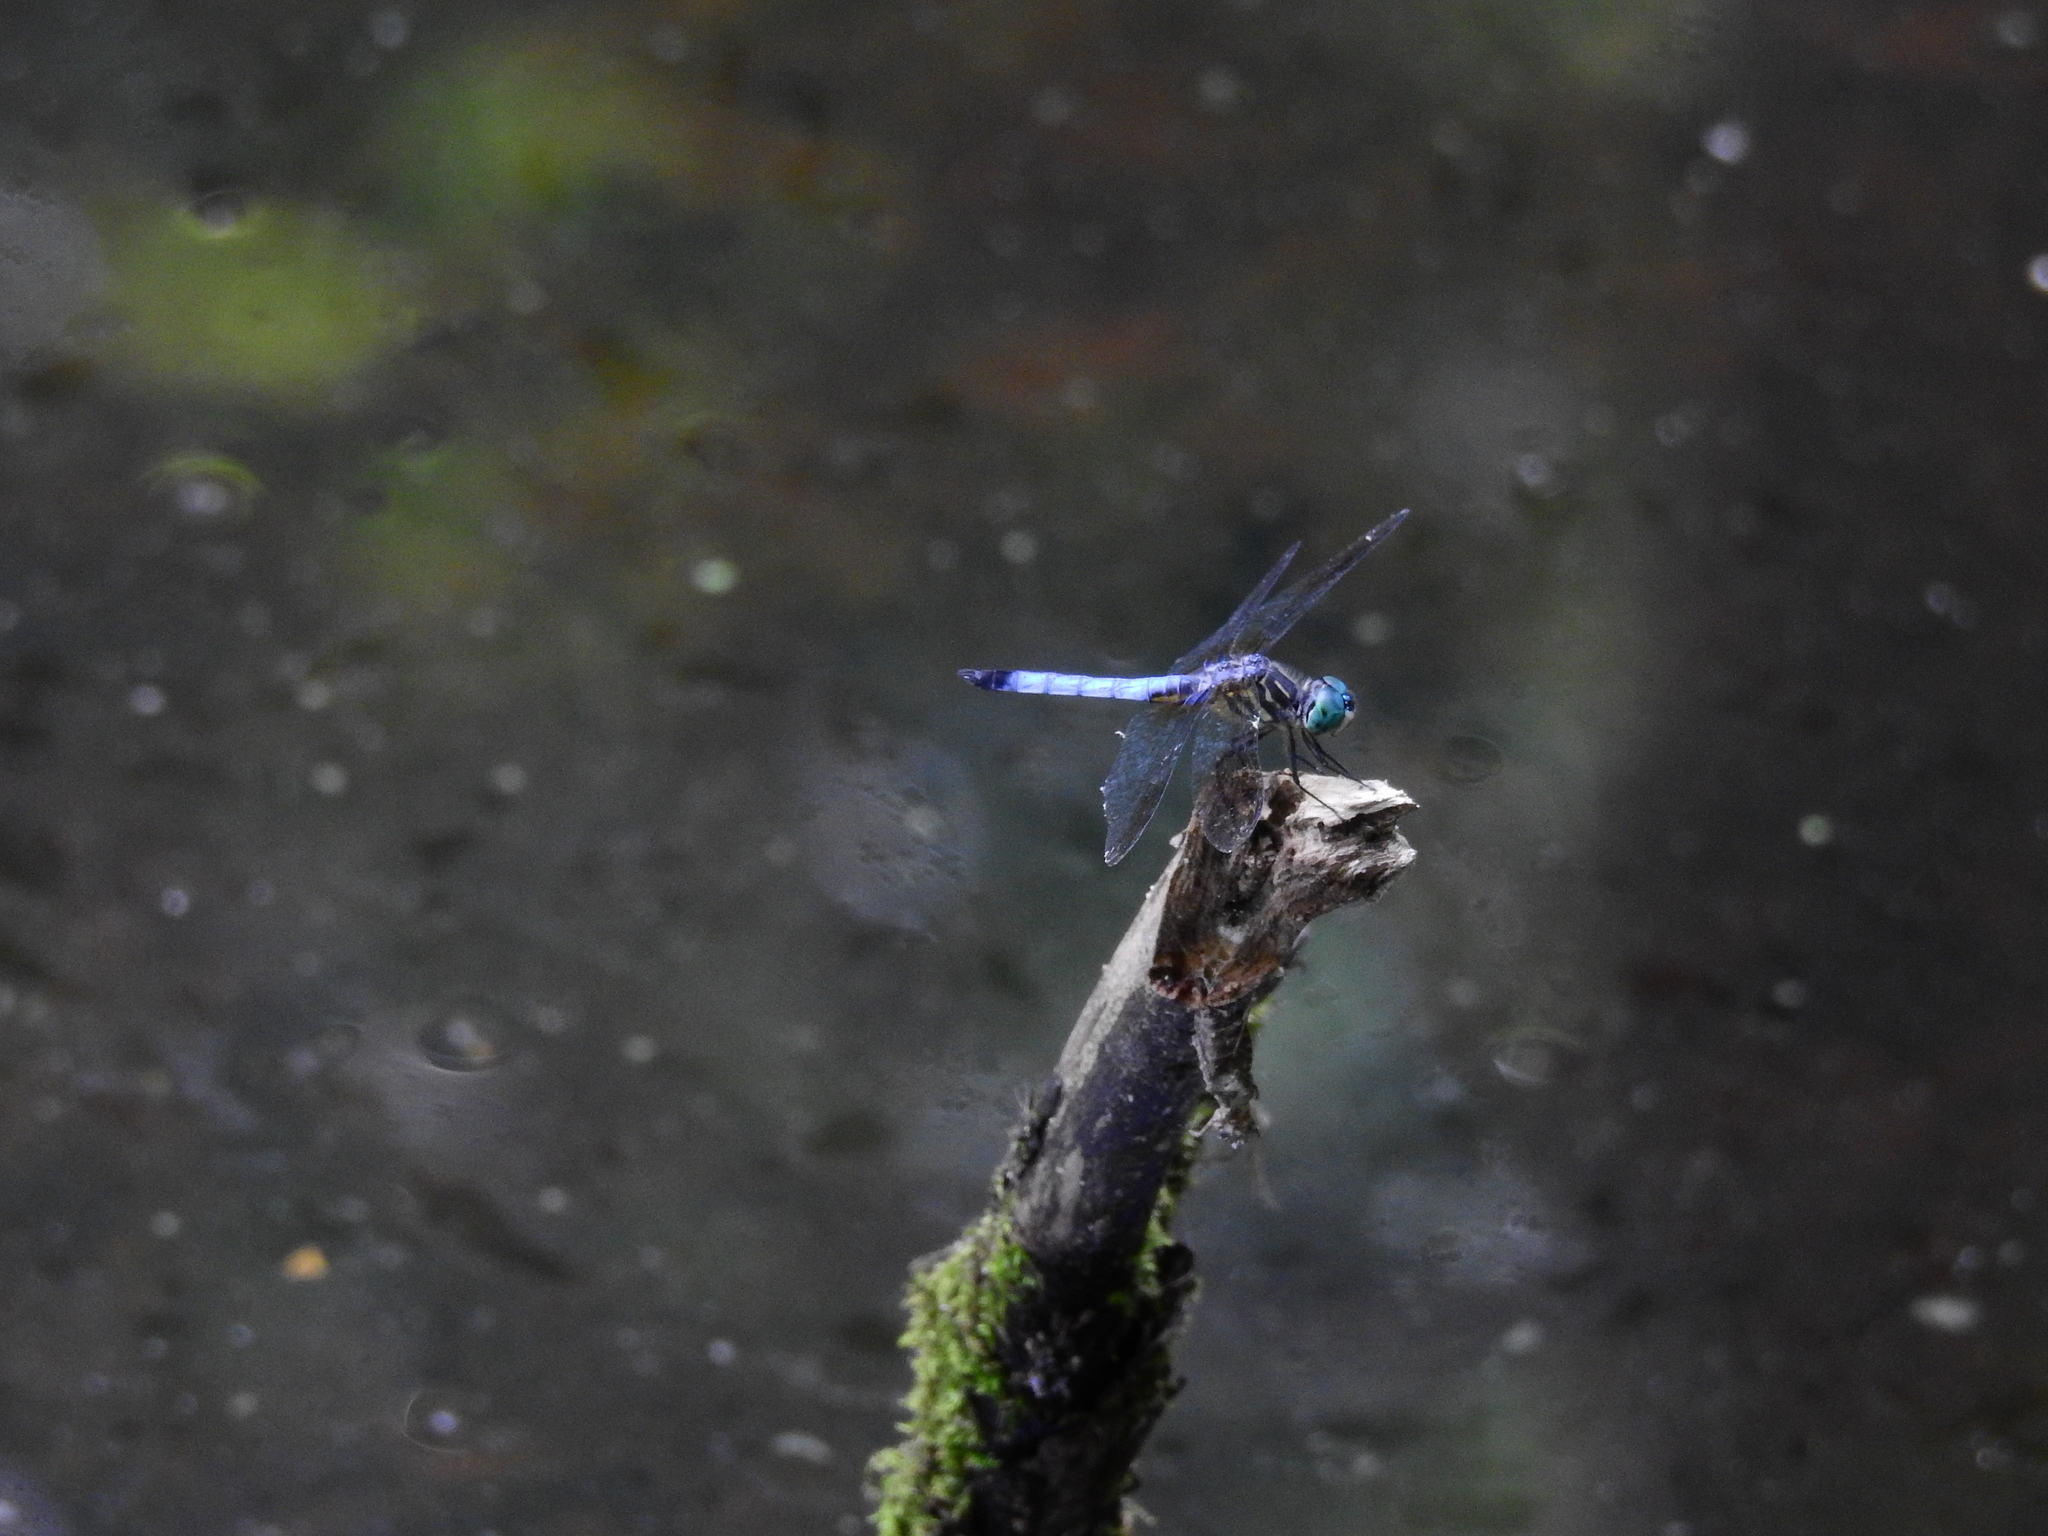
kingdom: Animalia
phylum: Arthropoda
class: Insecta
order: Odonata
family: Libellulidae
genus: Pachydiplax
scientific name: Pachydiplax longipennis
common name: Blue dasher
